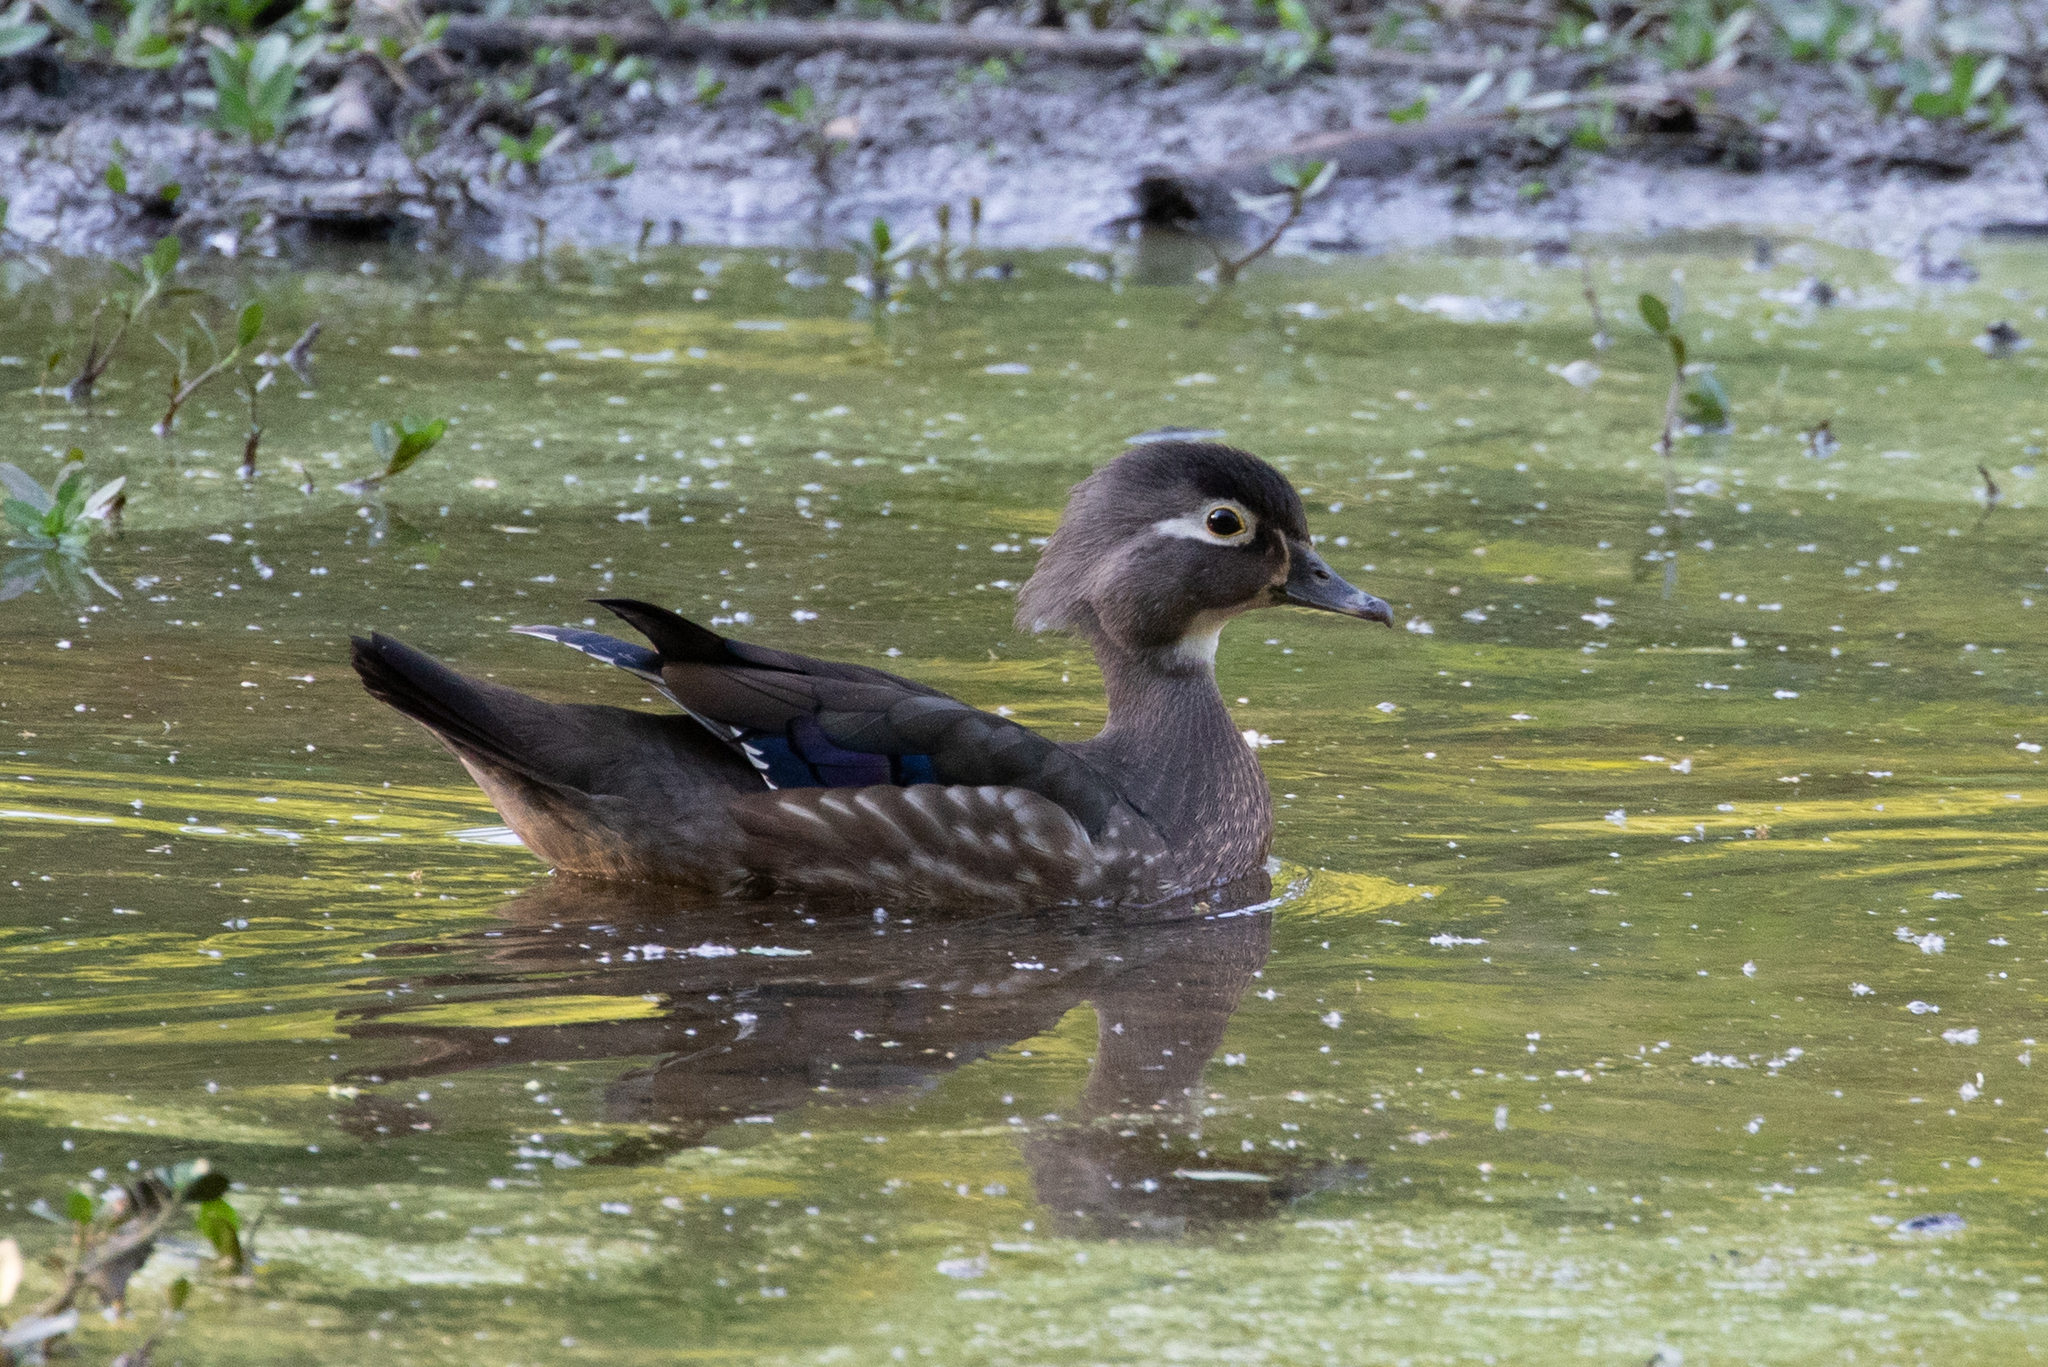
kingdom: Animalia
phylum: Chordata
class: Aves
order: Anseriformes
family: Anatidae
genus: Aix
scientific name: Aix sponsa
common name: Wood duck
